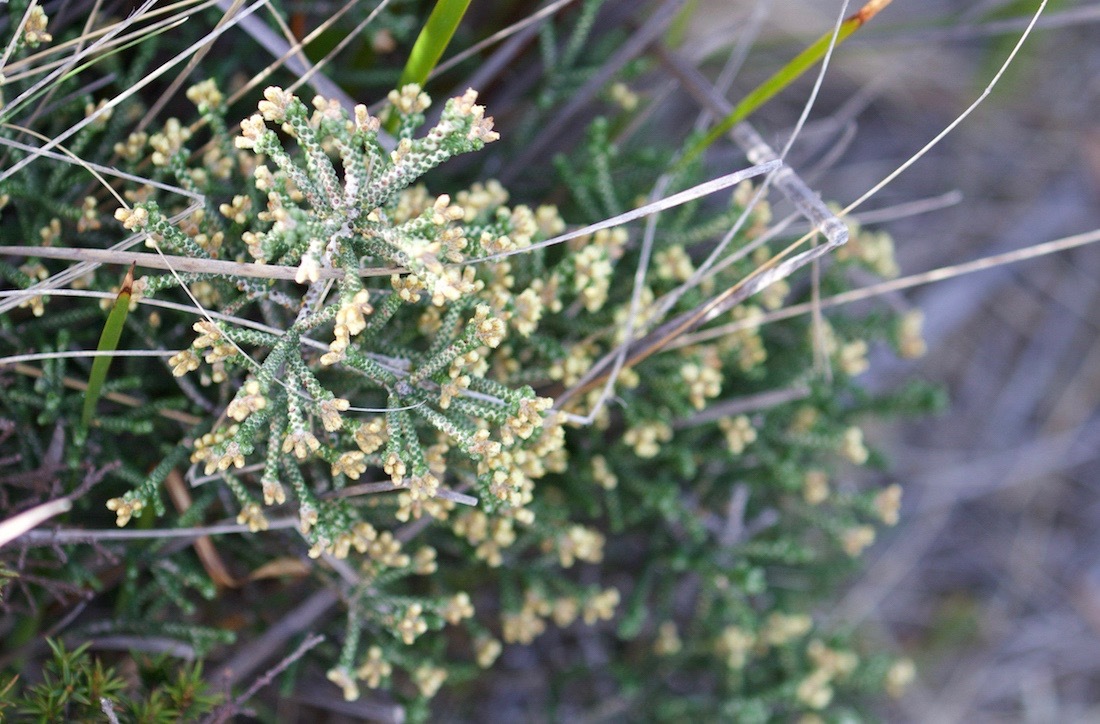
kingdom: Plantae
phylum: Tracheophyta
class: Magnoliopsida
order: Asterales
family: Asteraceae
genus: Ozothamnus
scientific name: Ozothamnus scutellifolius
